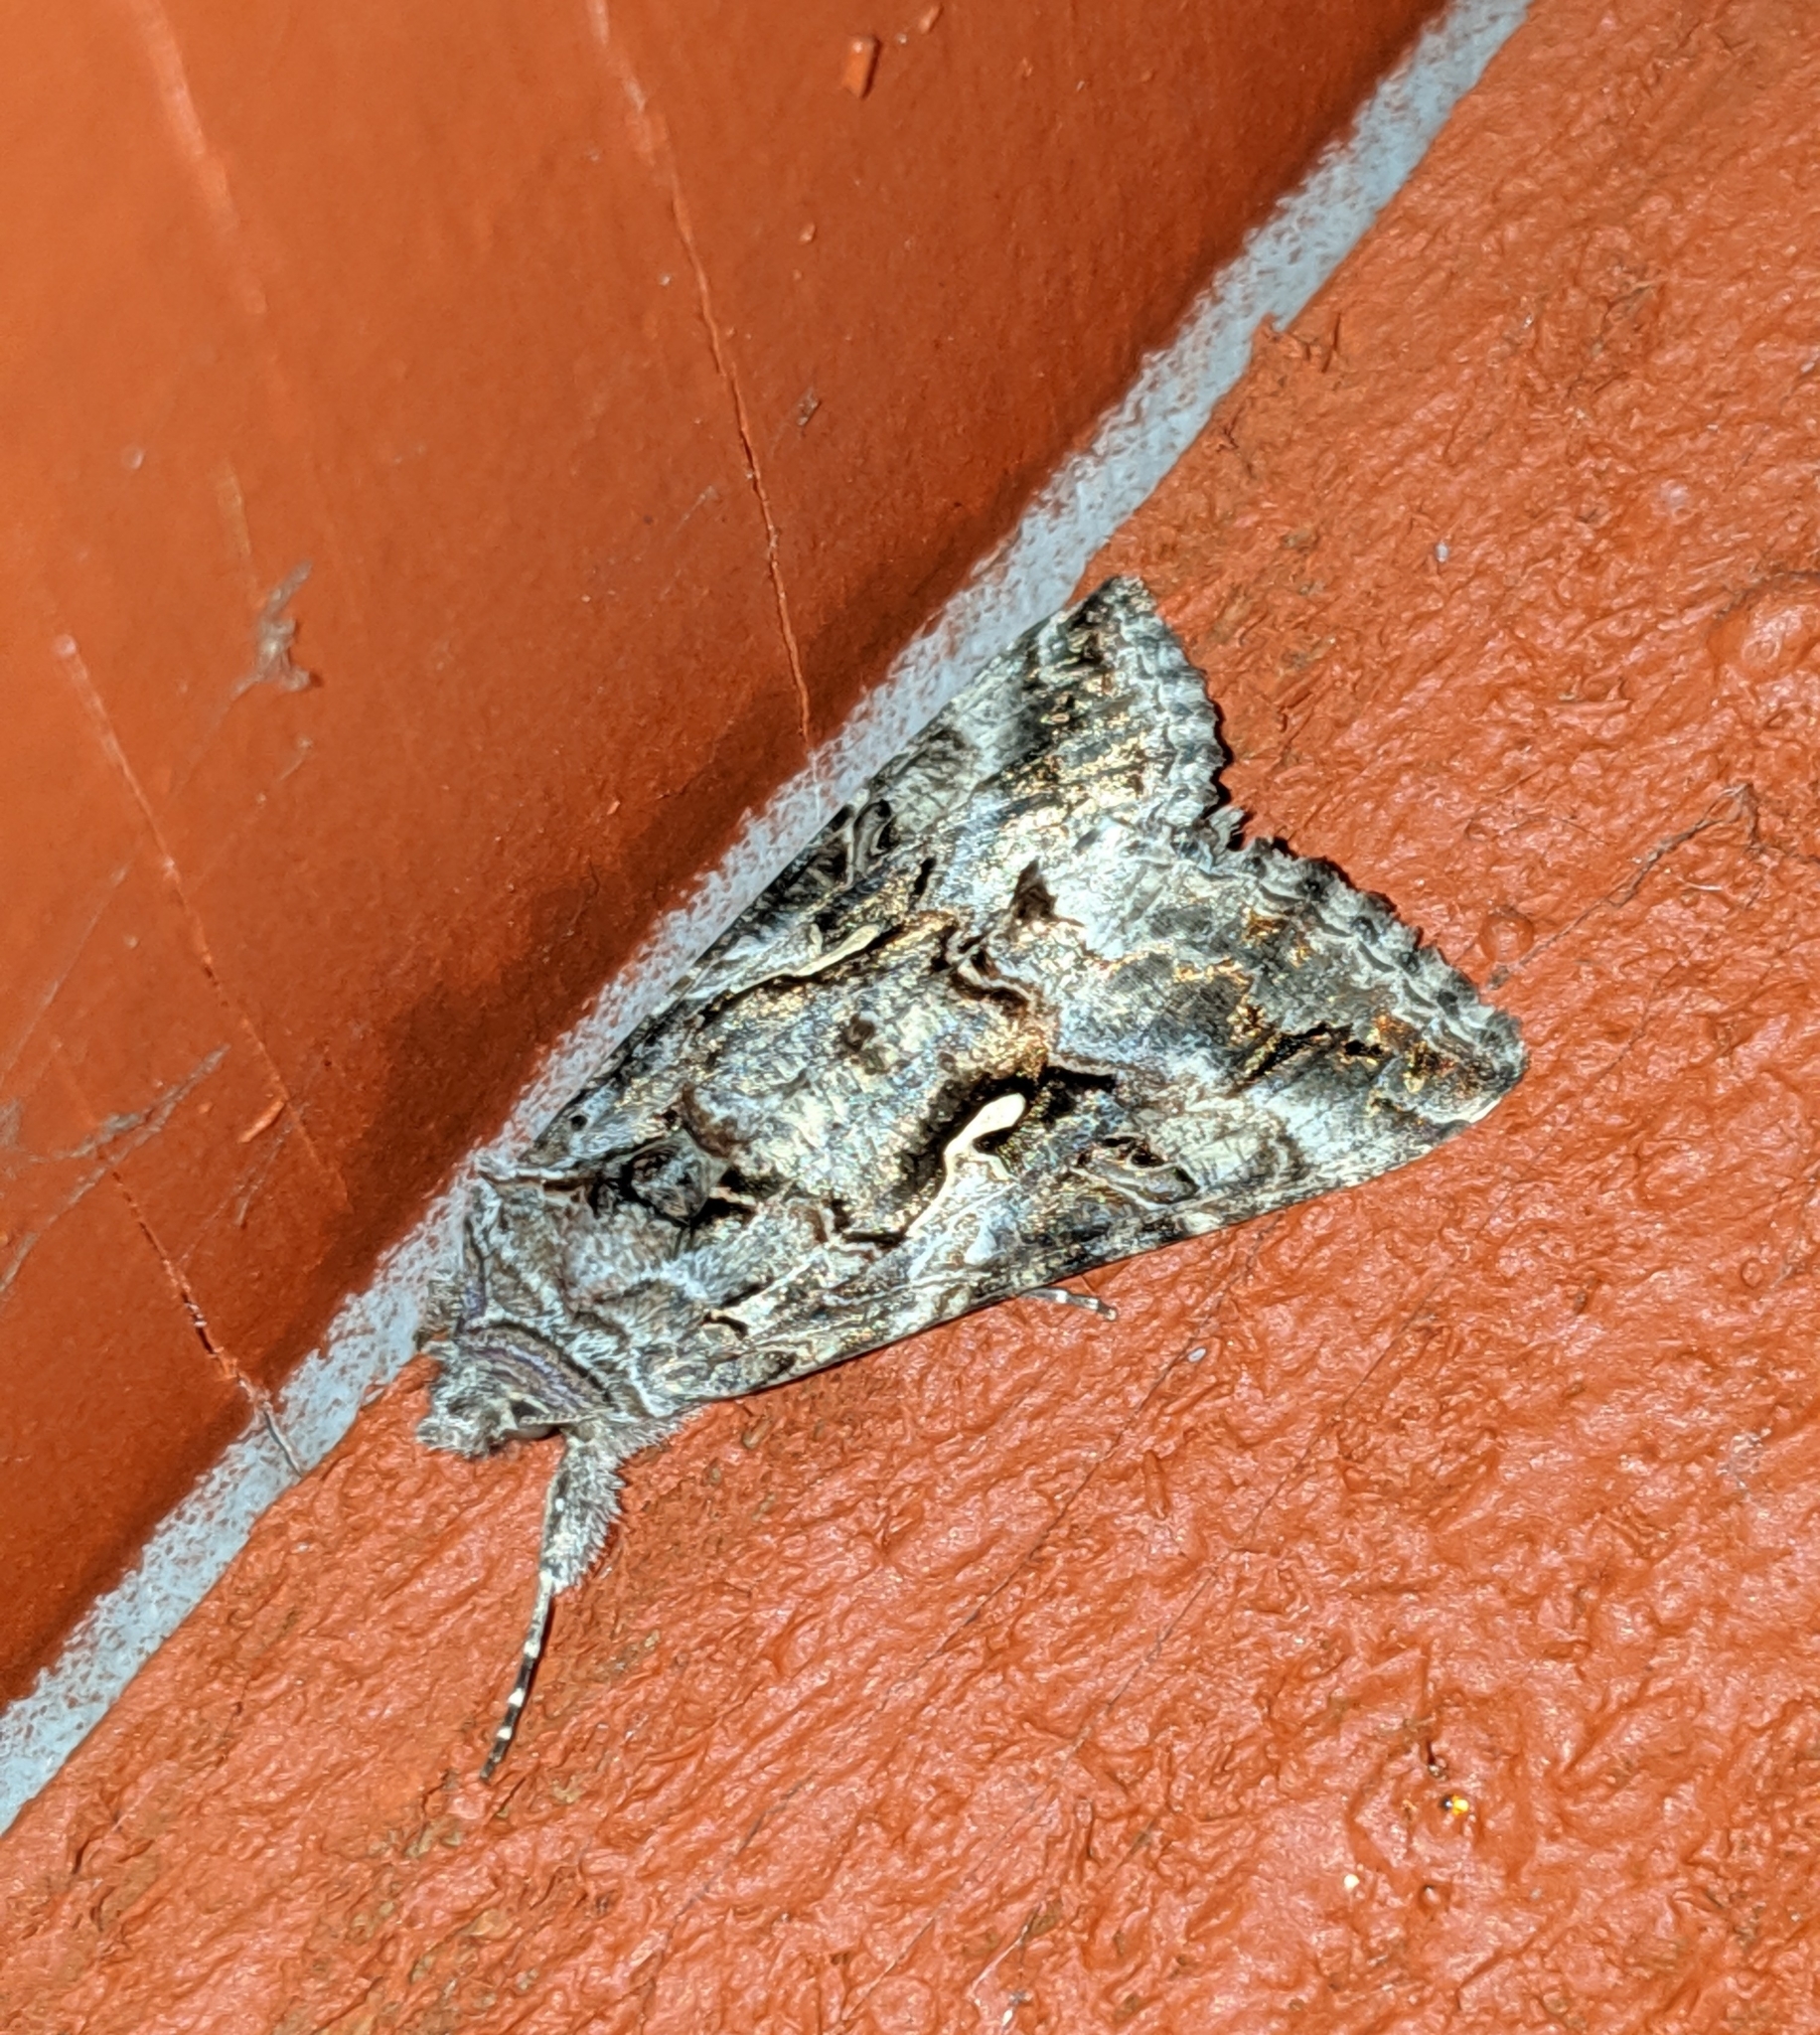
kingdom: Animalia
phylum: Arthropoda
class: Insecta
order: Lepidoptera
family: Noctuidae
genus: Autographa
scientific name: Autographa californica
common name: Alfalfa looper
